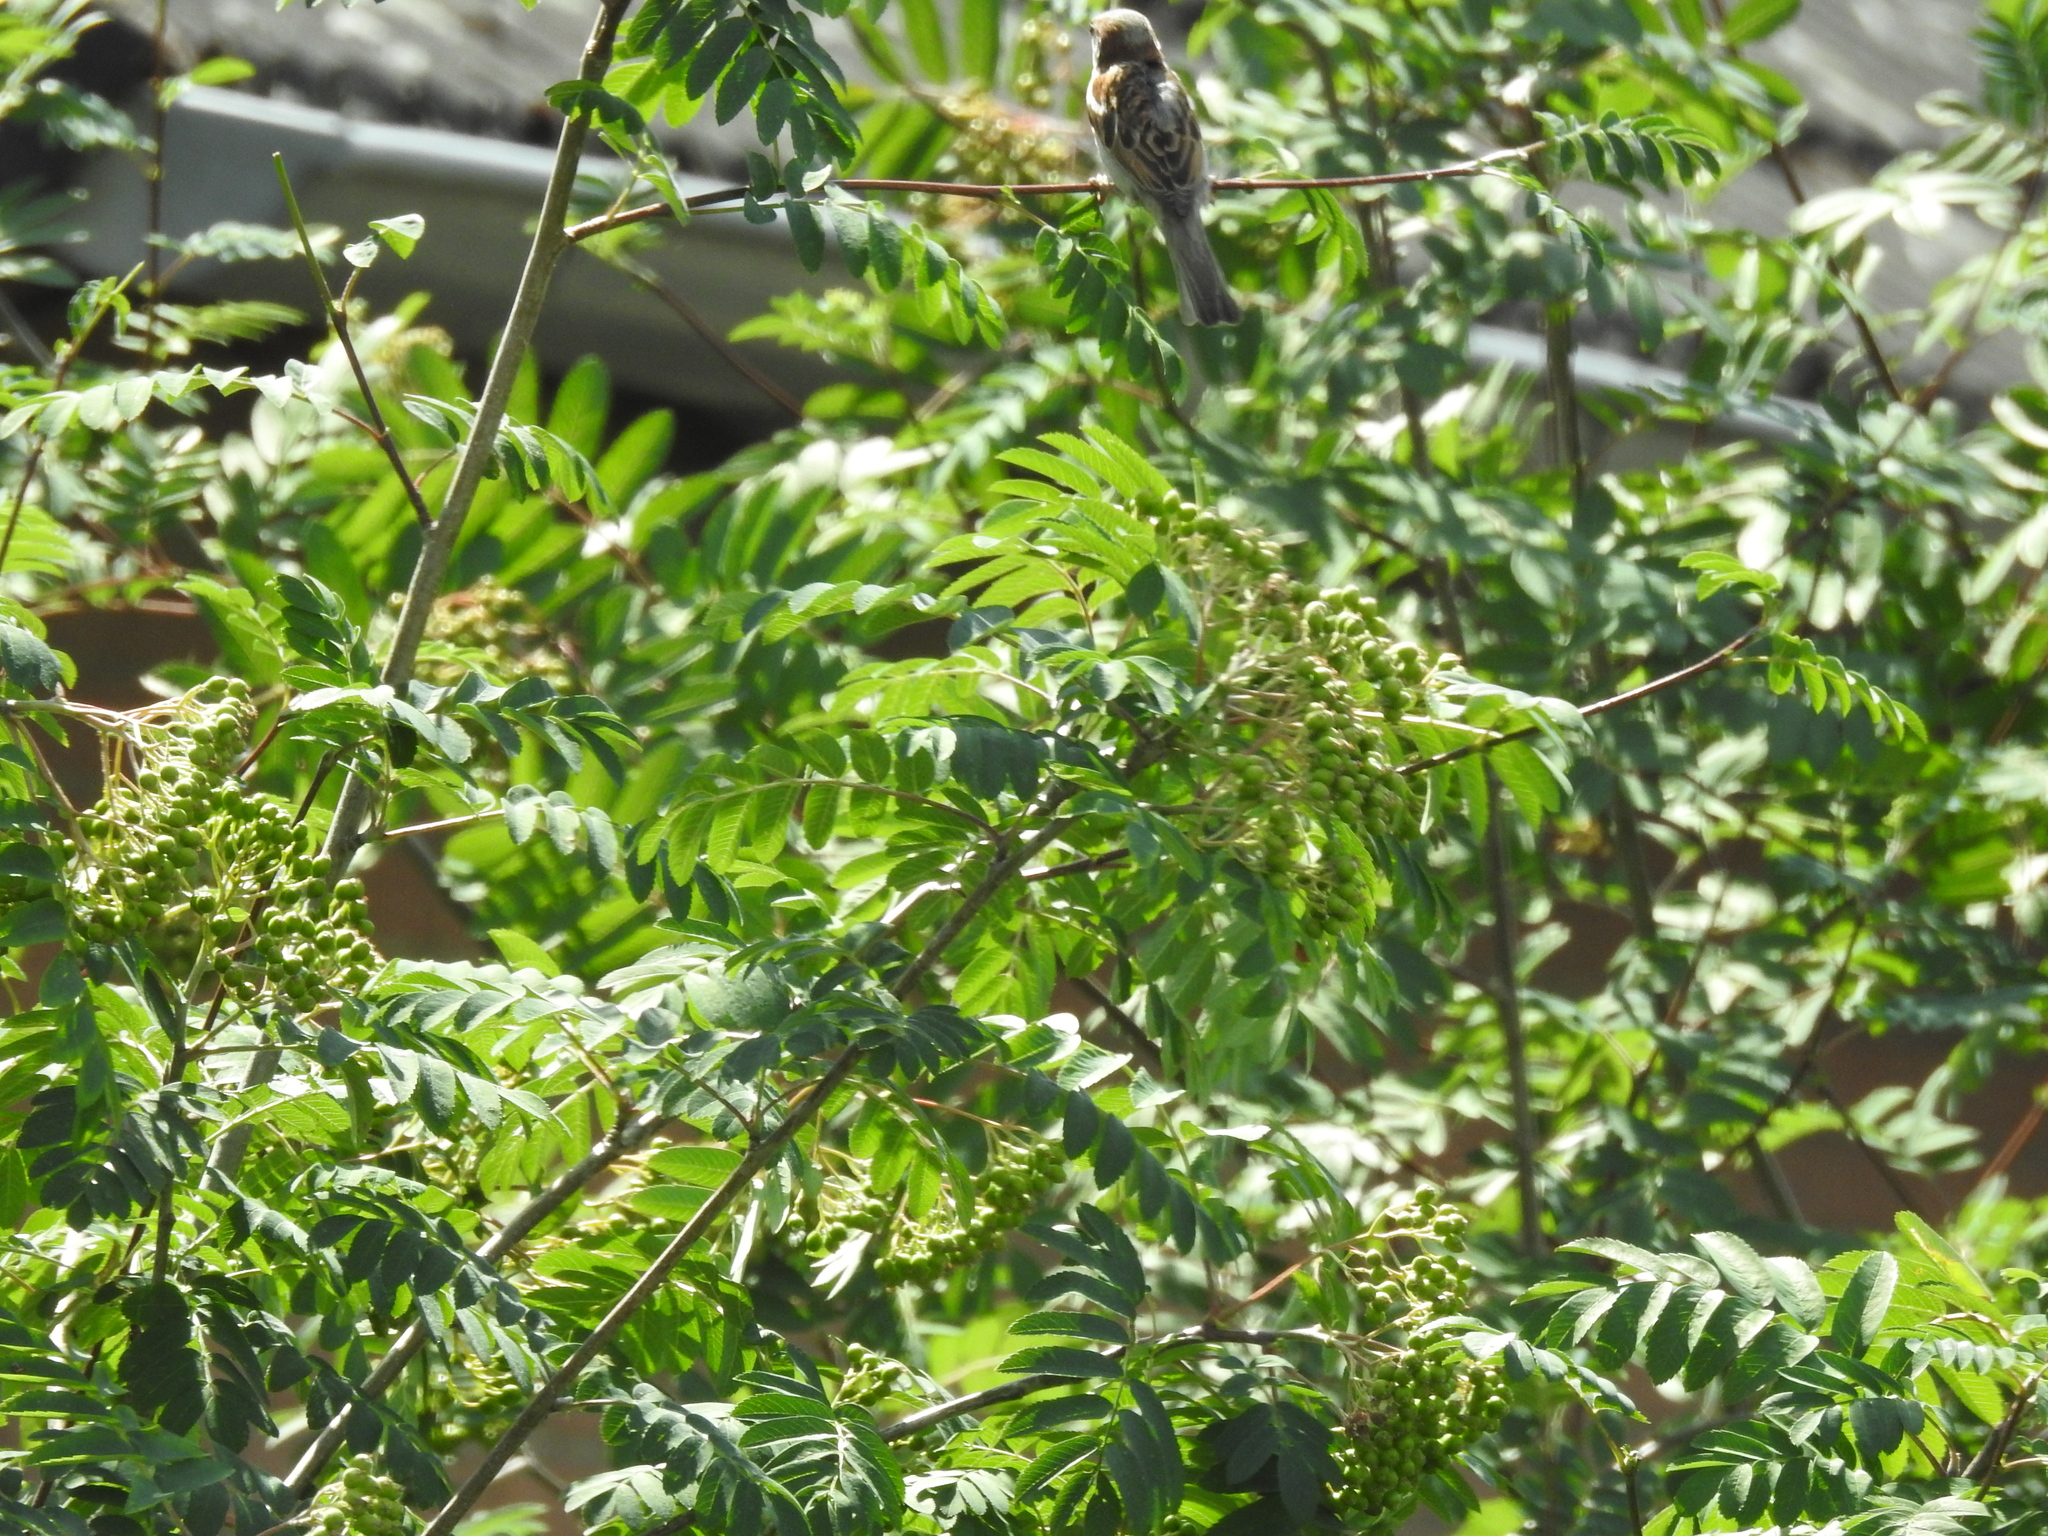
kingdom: Plantae
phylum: Tracheophyta
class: Magnoliopsida
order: Rosales
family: Rosaceae
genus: Sorbus
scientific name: Sorbus aucuparia
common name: Rowan
